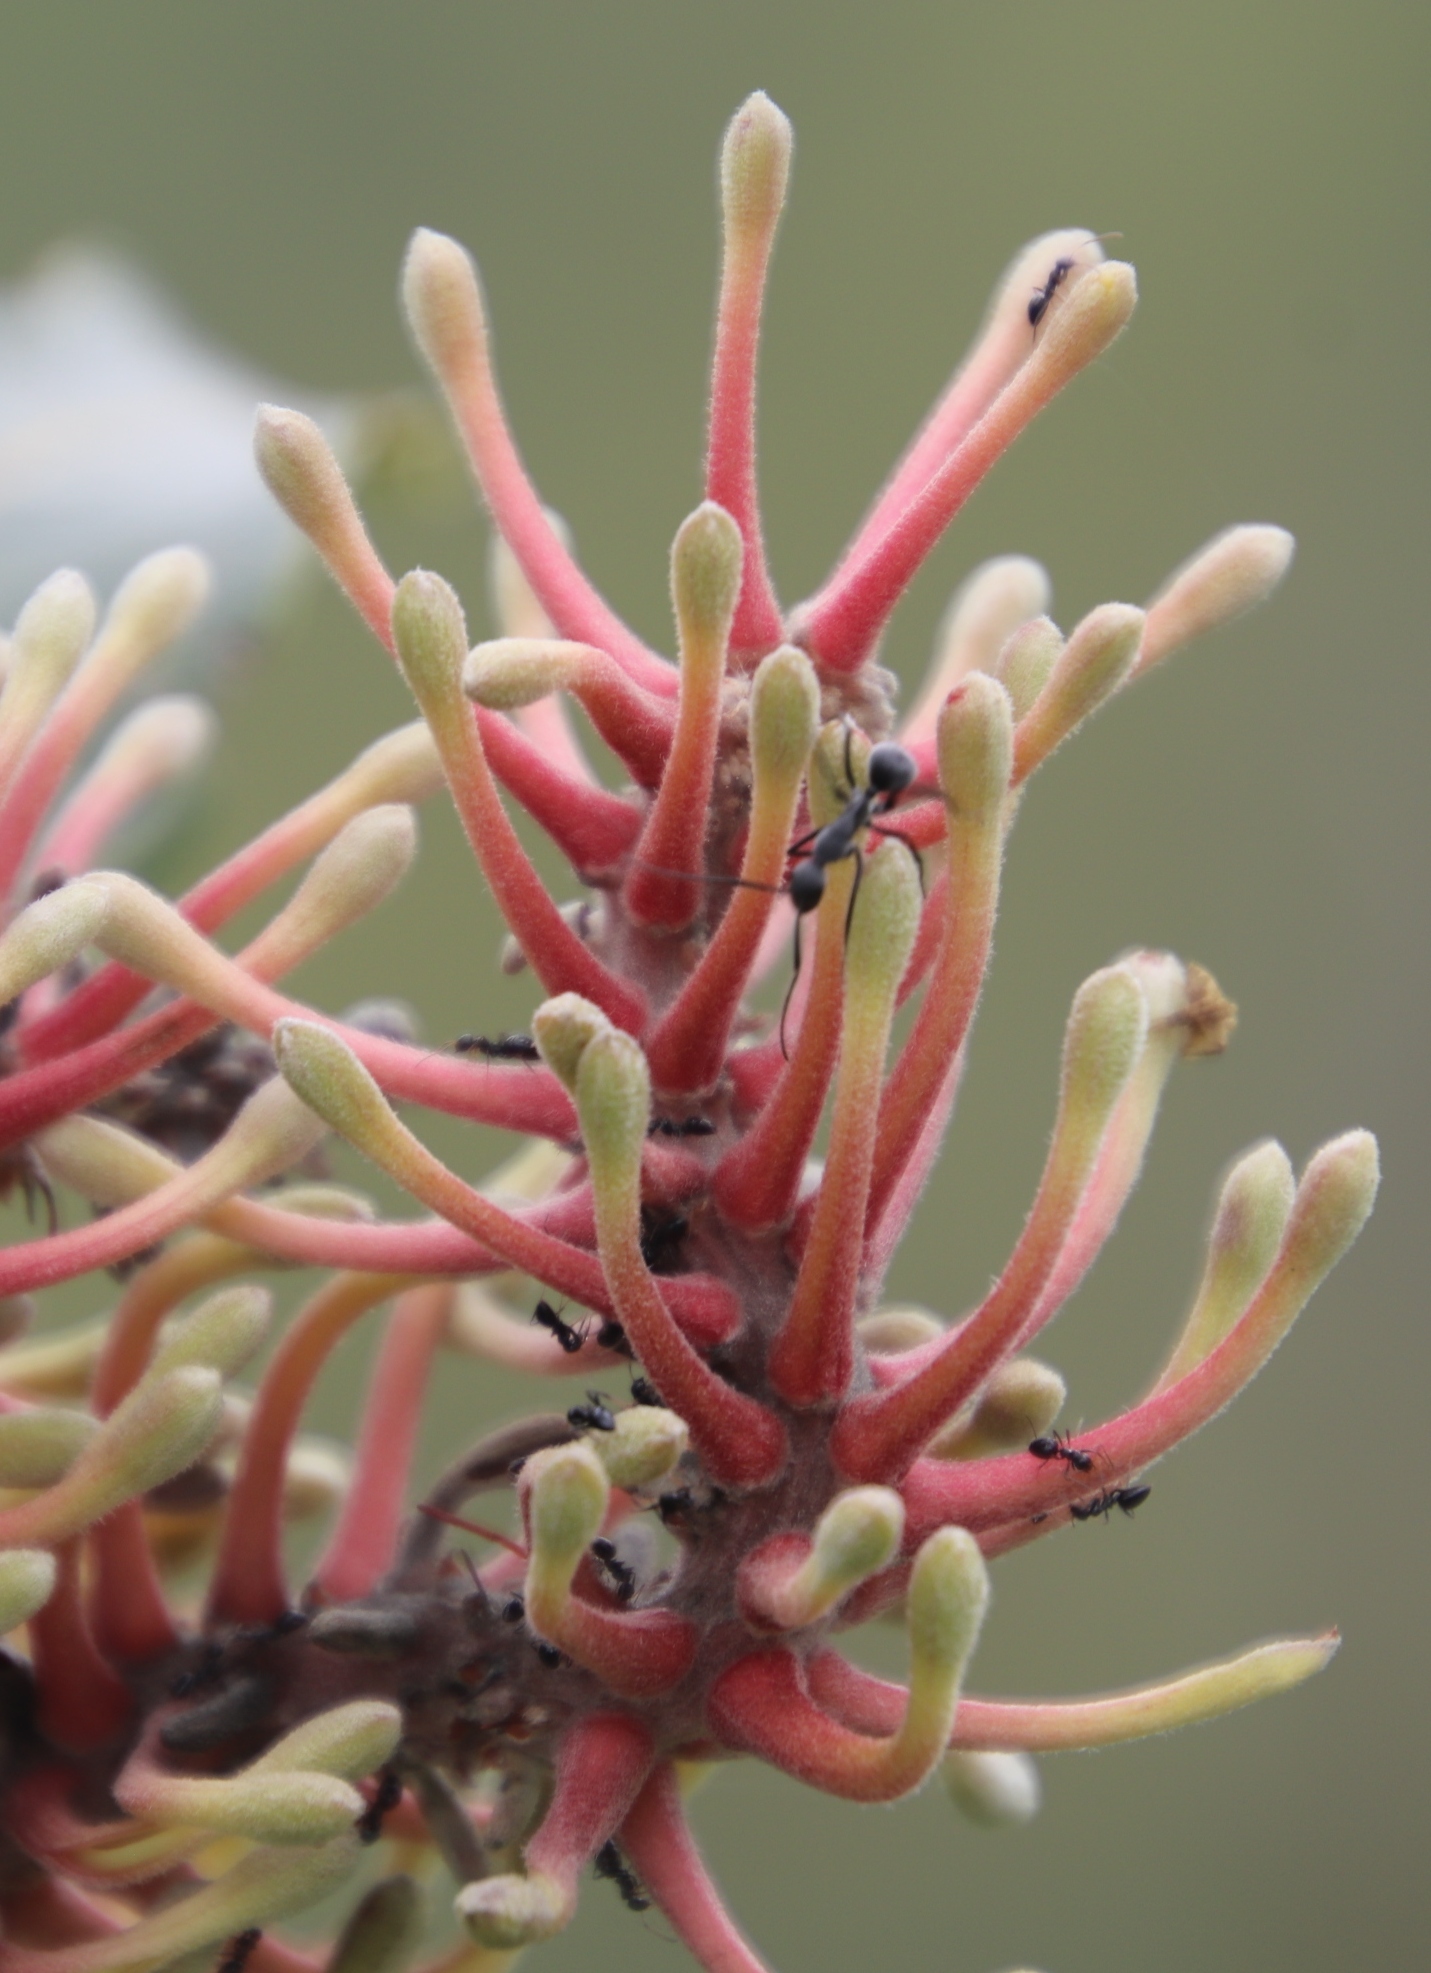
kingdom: Plantae
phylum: Tracheophyta
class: Magnoliopsida
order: Proteales
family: Proteaceae
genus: Faurea
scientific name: Faurea rochetiana
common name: Broad-leaved beech
